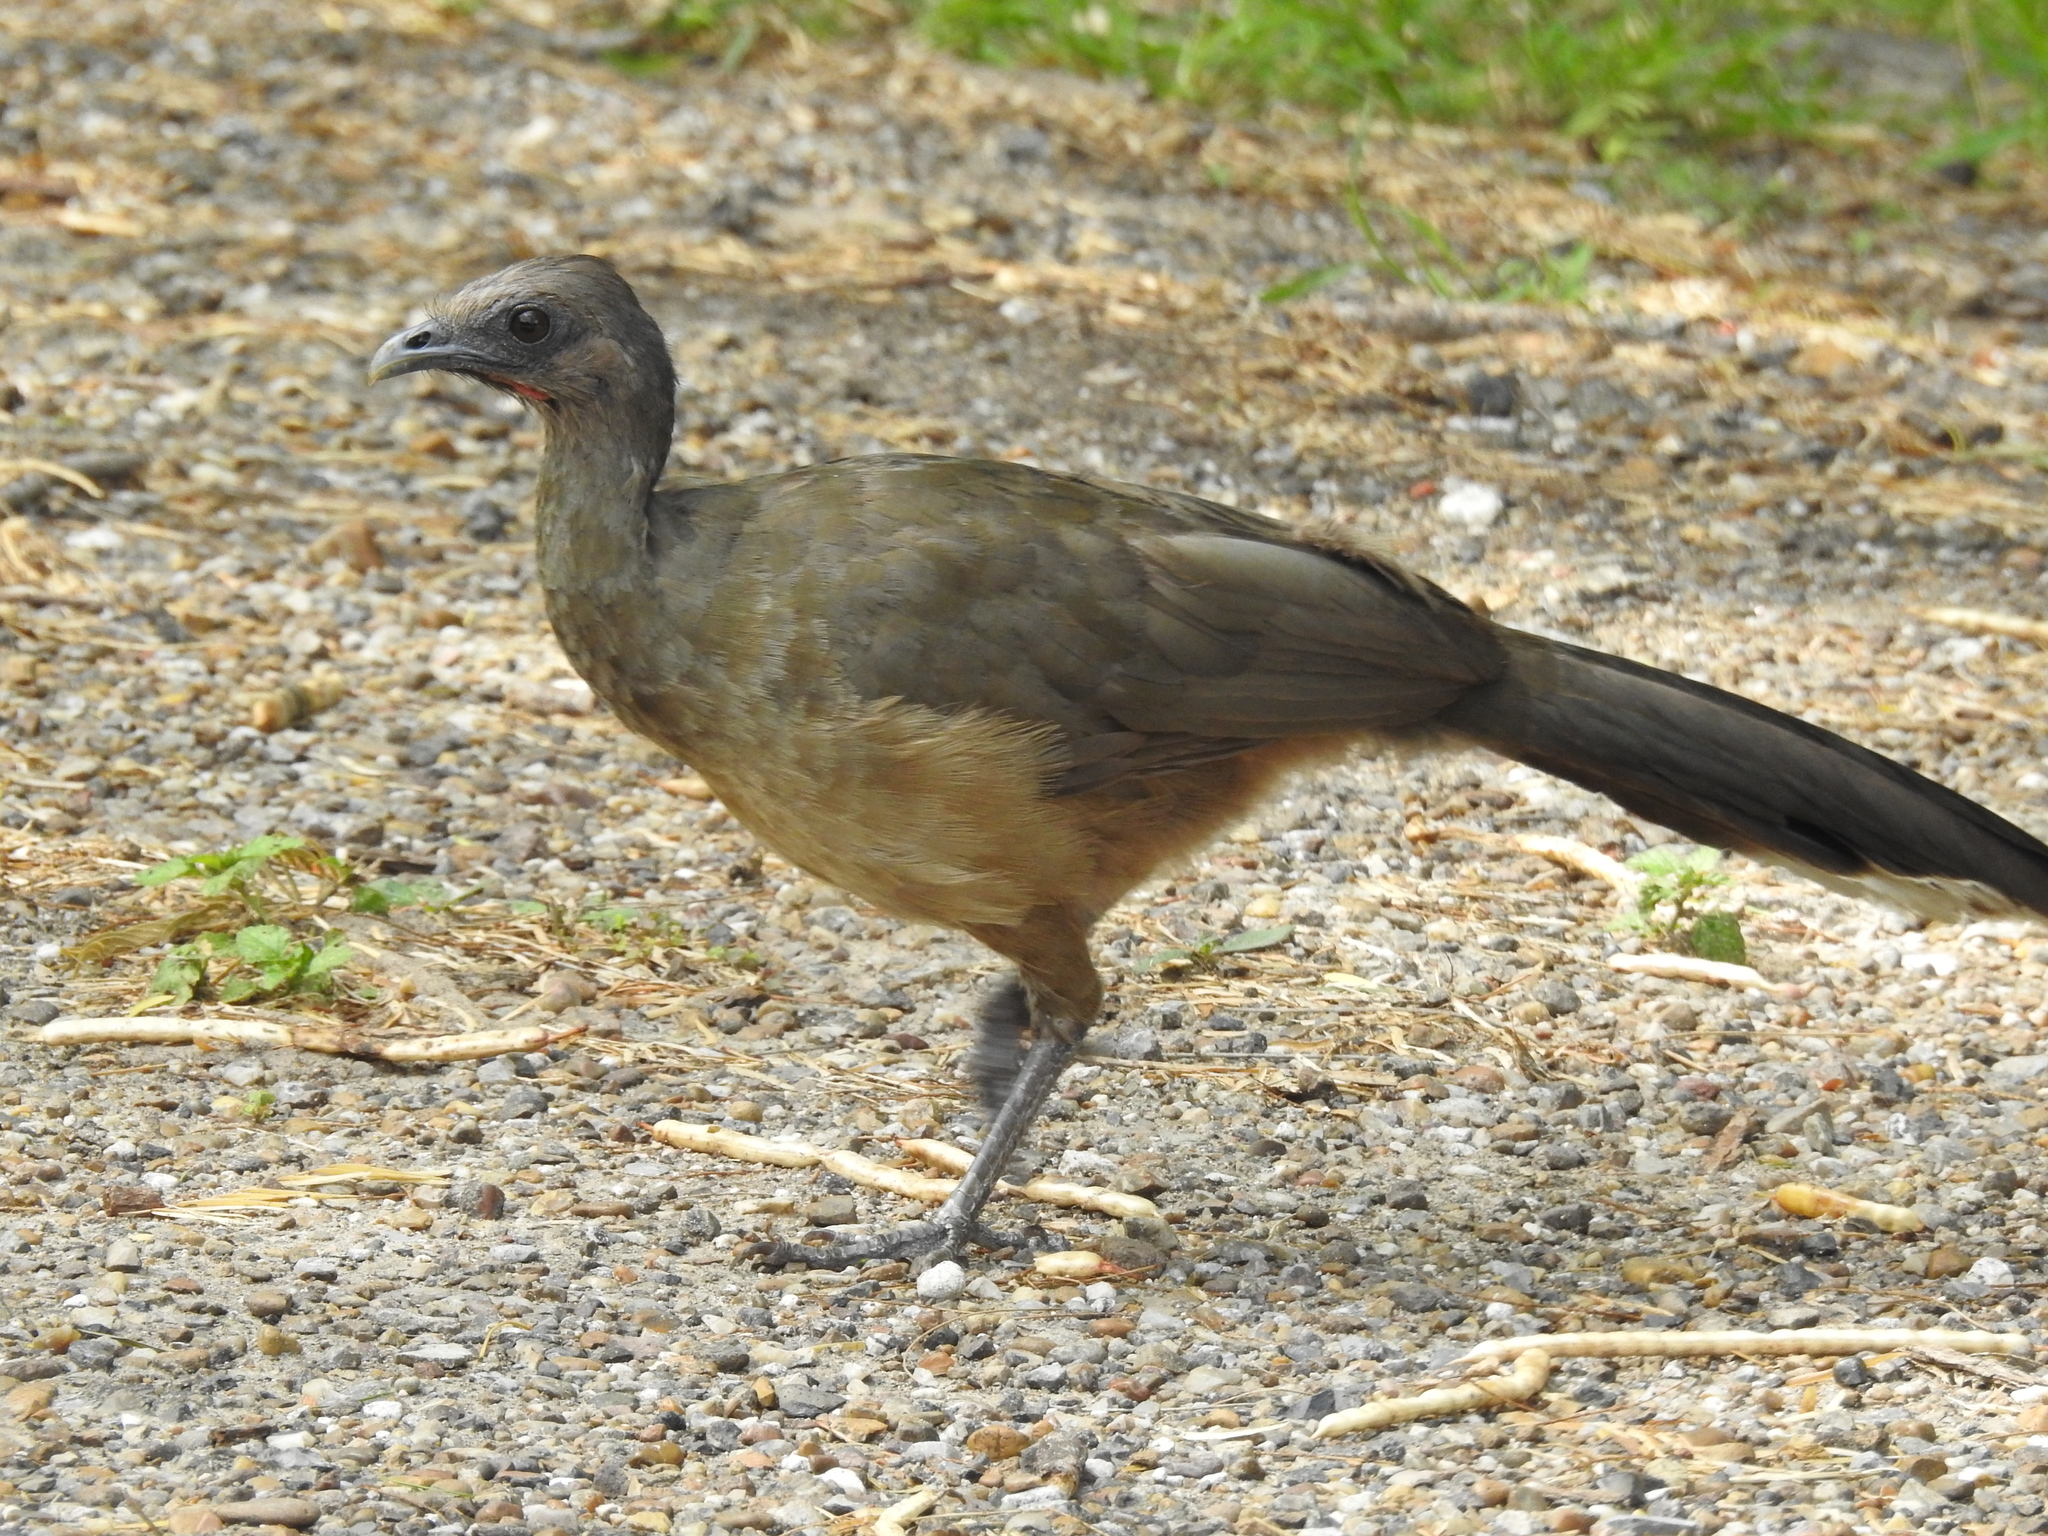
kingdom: Animalia
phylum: Chordata
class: Aves
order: Galliformes
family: Cracidae
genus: Ortalis
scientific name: Ortalis vetula
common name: Plain chachalaca
